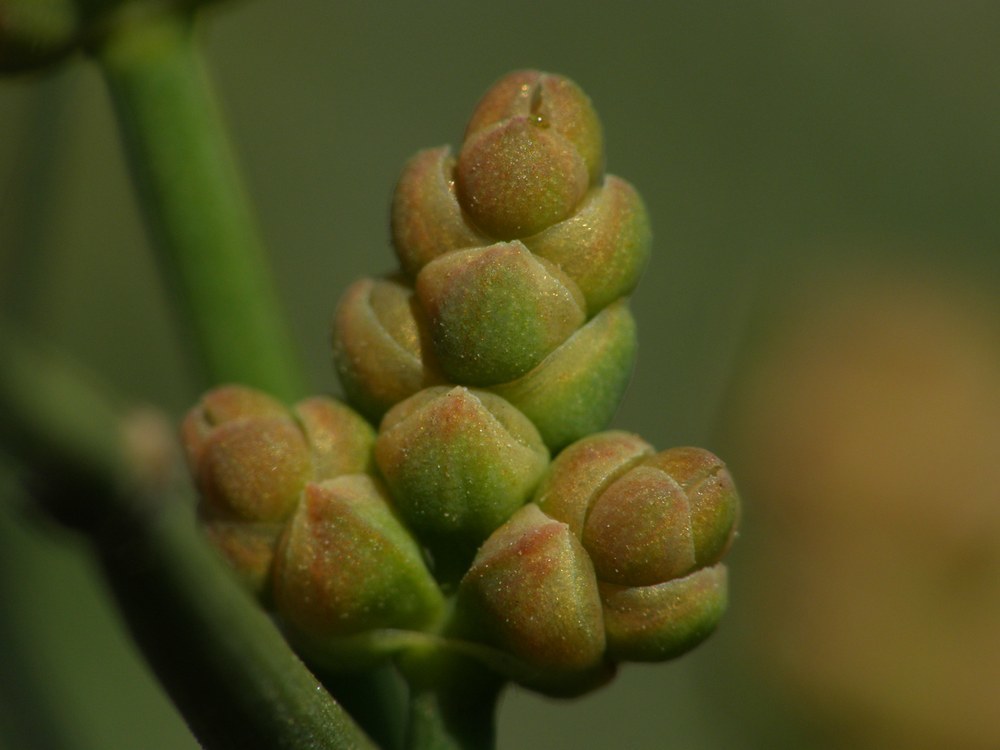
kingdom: Plantae
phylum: Tracheophyta
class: Gnetopsida
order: Ephedrales
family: Ephedraceae
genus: Ephedra
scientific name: Ephedra distachya
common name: Sea grape
